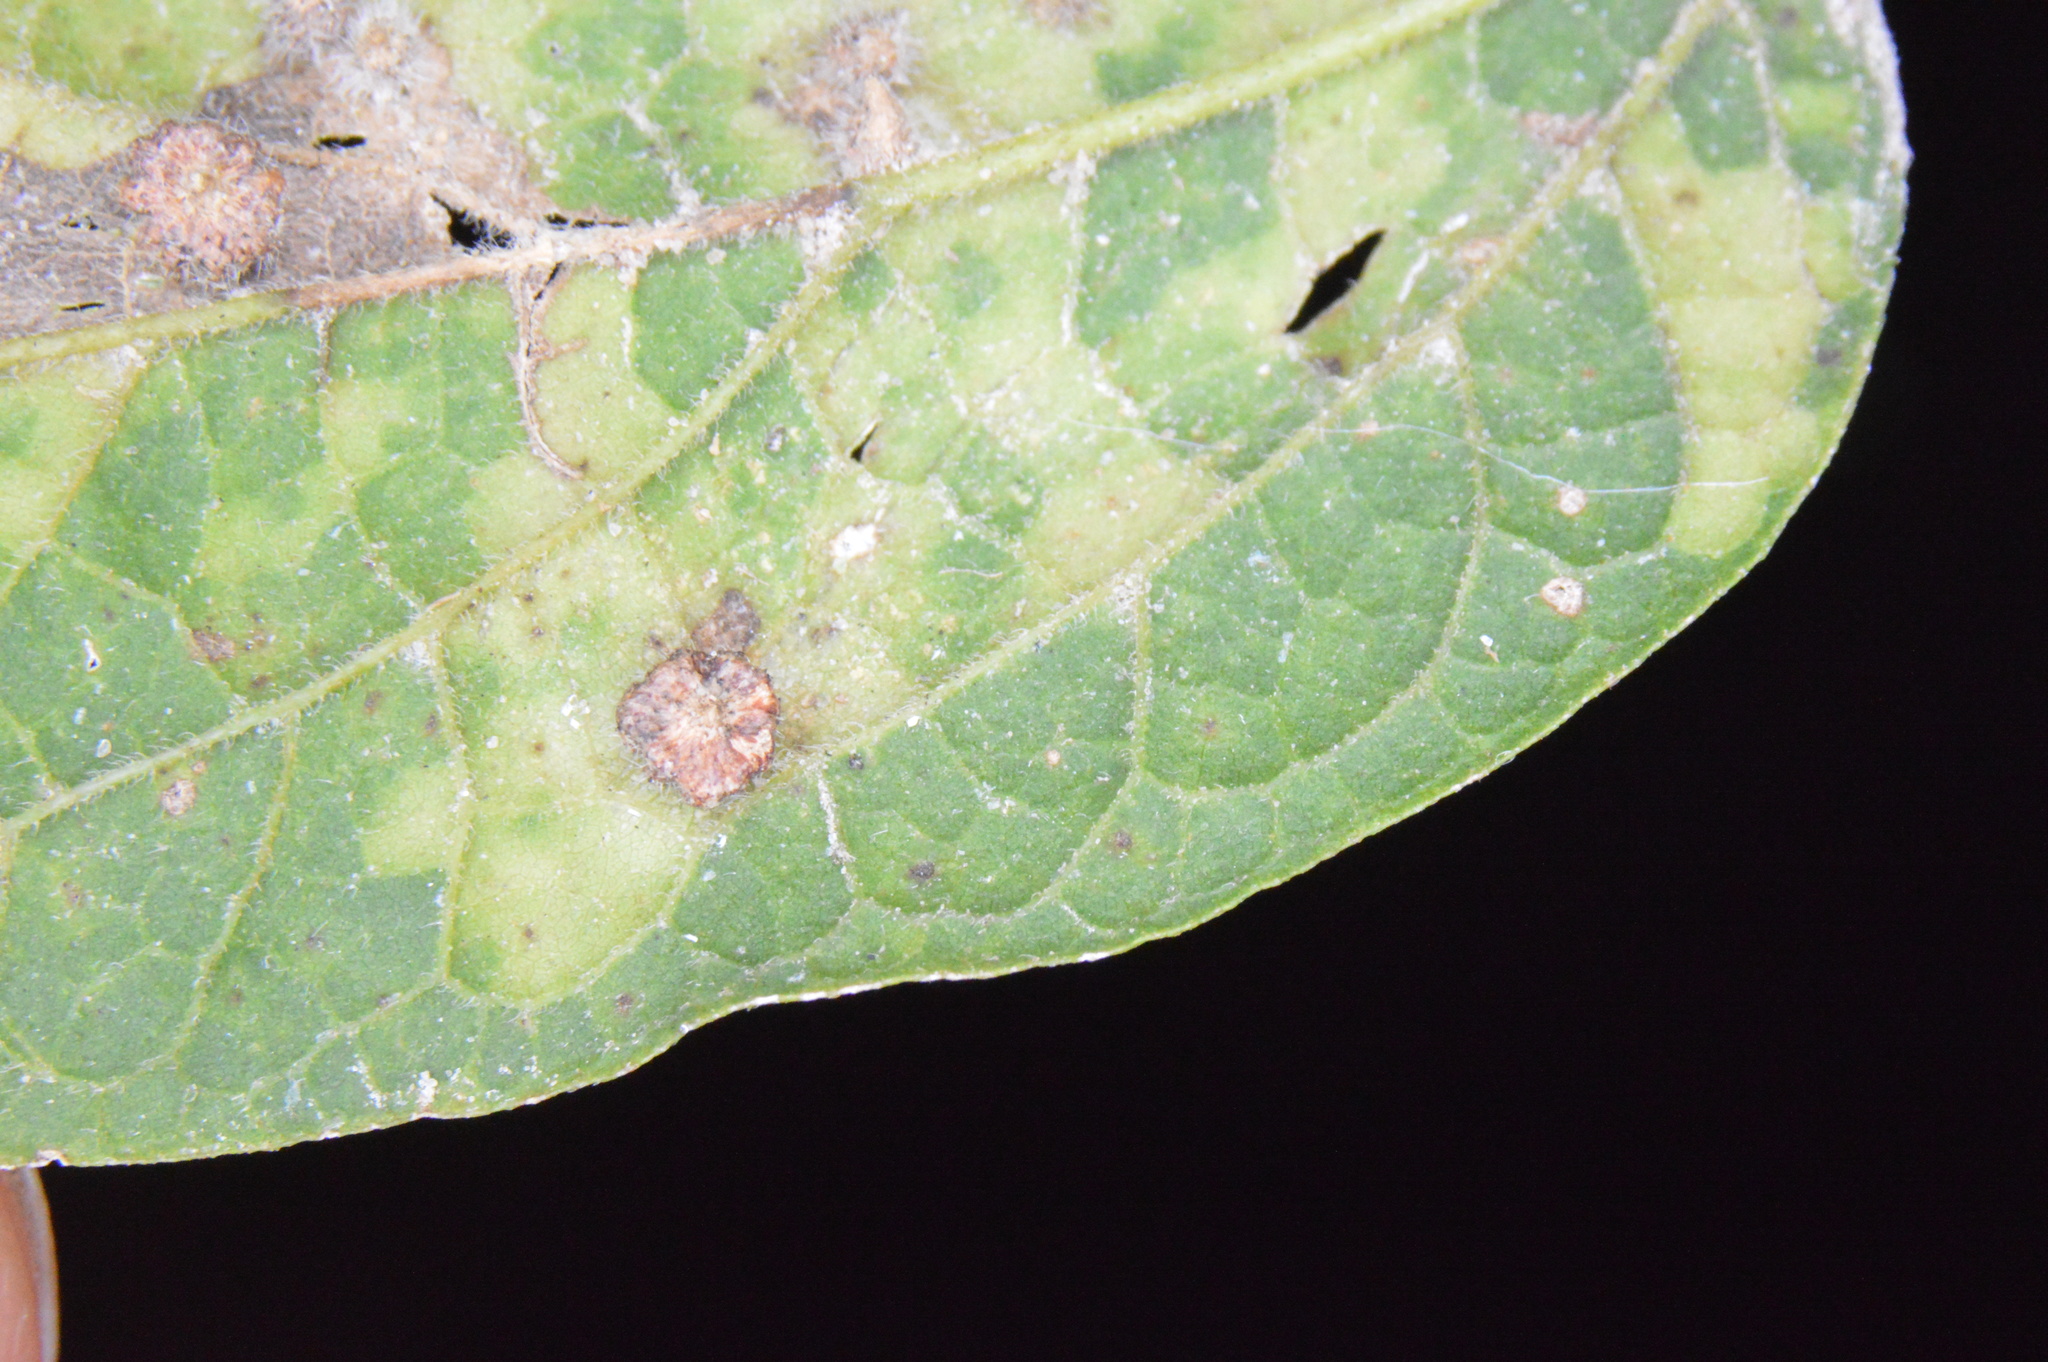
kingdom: Animalia
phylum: Arthropoda
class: Insecta
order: Diptera
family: Cecidomyiidae
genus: Celticecis
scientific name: Celticecis capsularis
